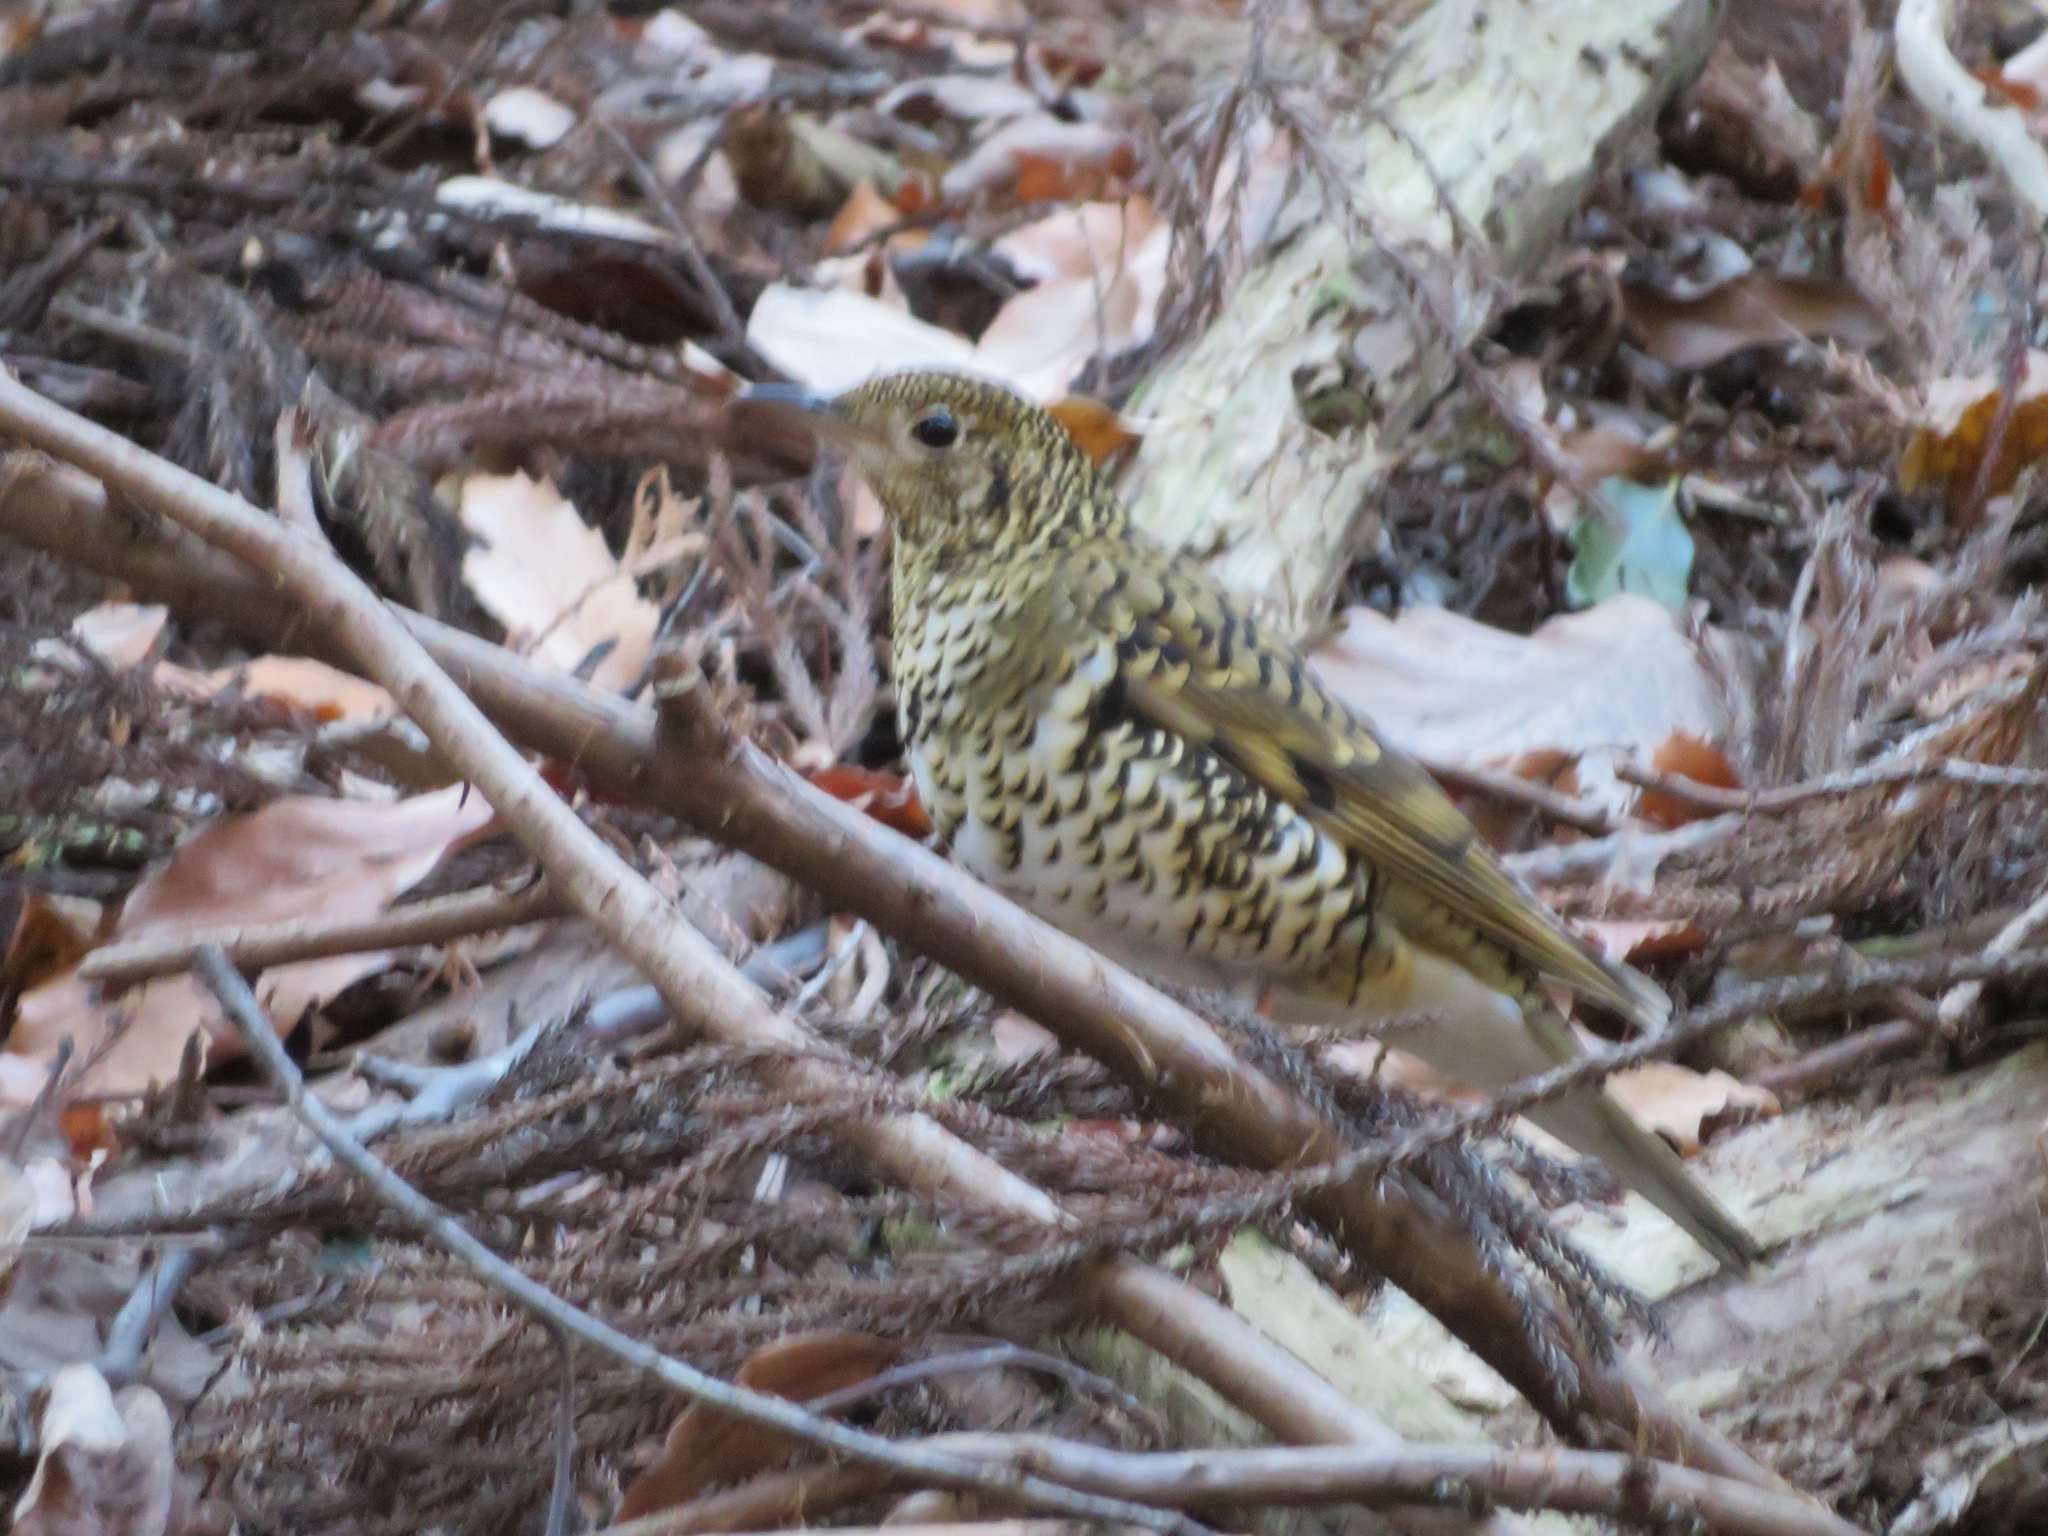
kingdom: Animalia
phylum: Chordata
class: Aves
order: Passeriformes
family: Turdidae
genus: Zoothera
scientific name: Zoothera aurea
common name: White's thrush
